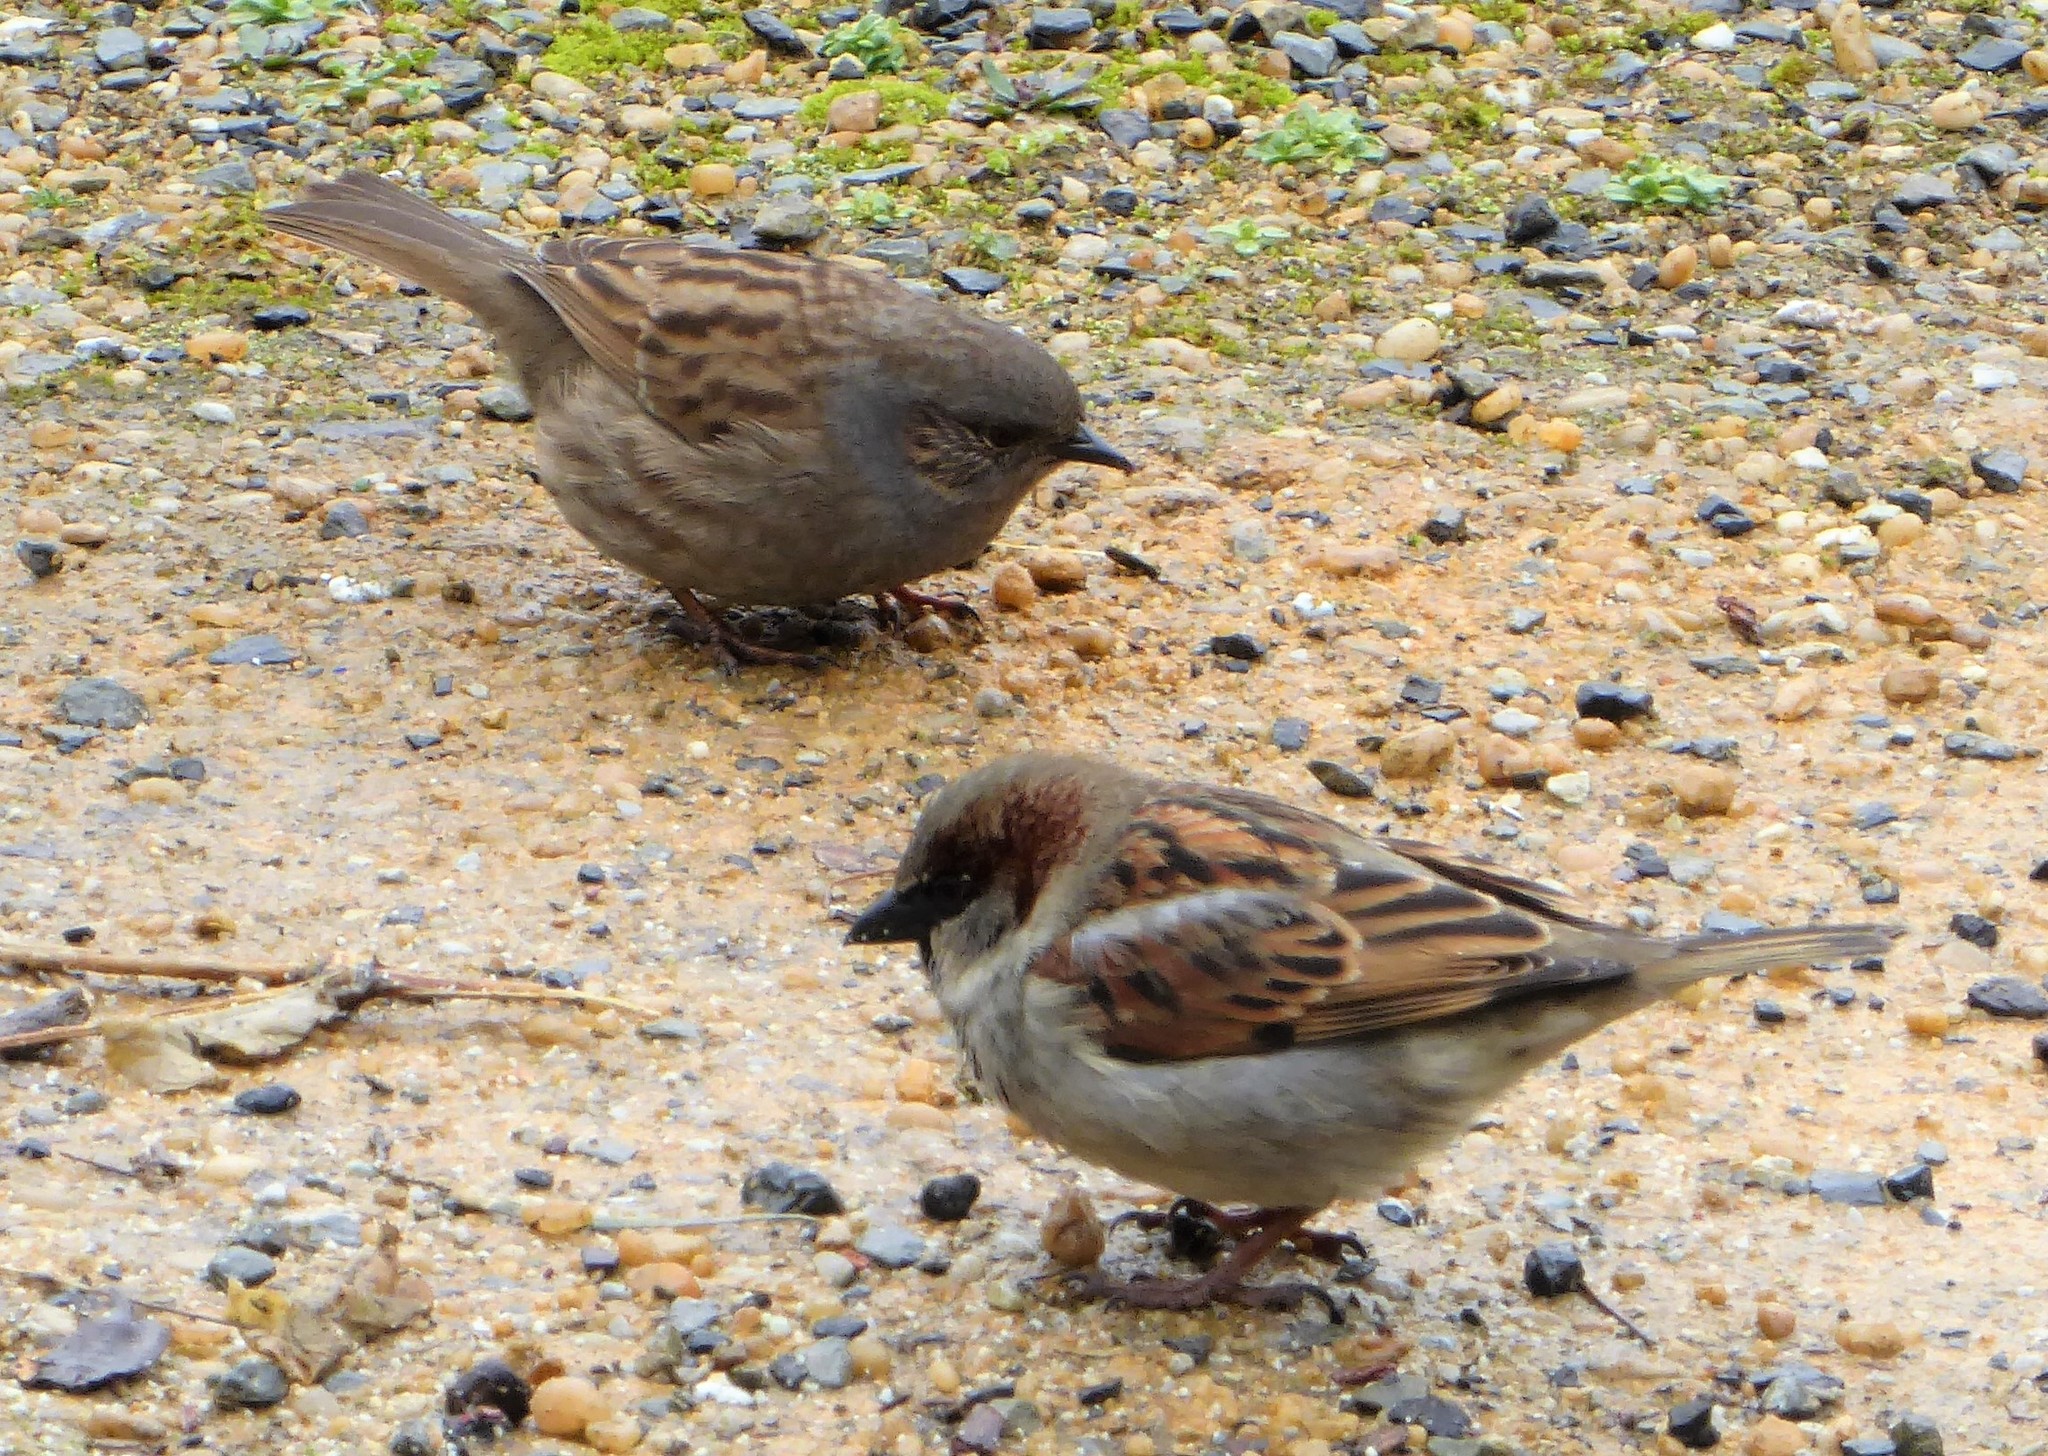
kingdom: Animalia
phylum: Chordata
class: Aves
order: Passeriformes
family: Prunellidae
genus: Prunella
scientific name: Prunella modularis
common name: Dunnock
